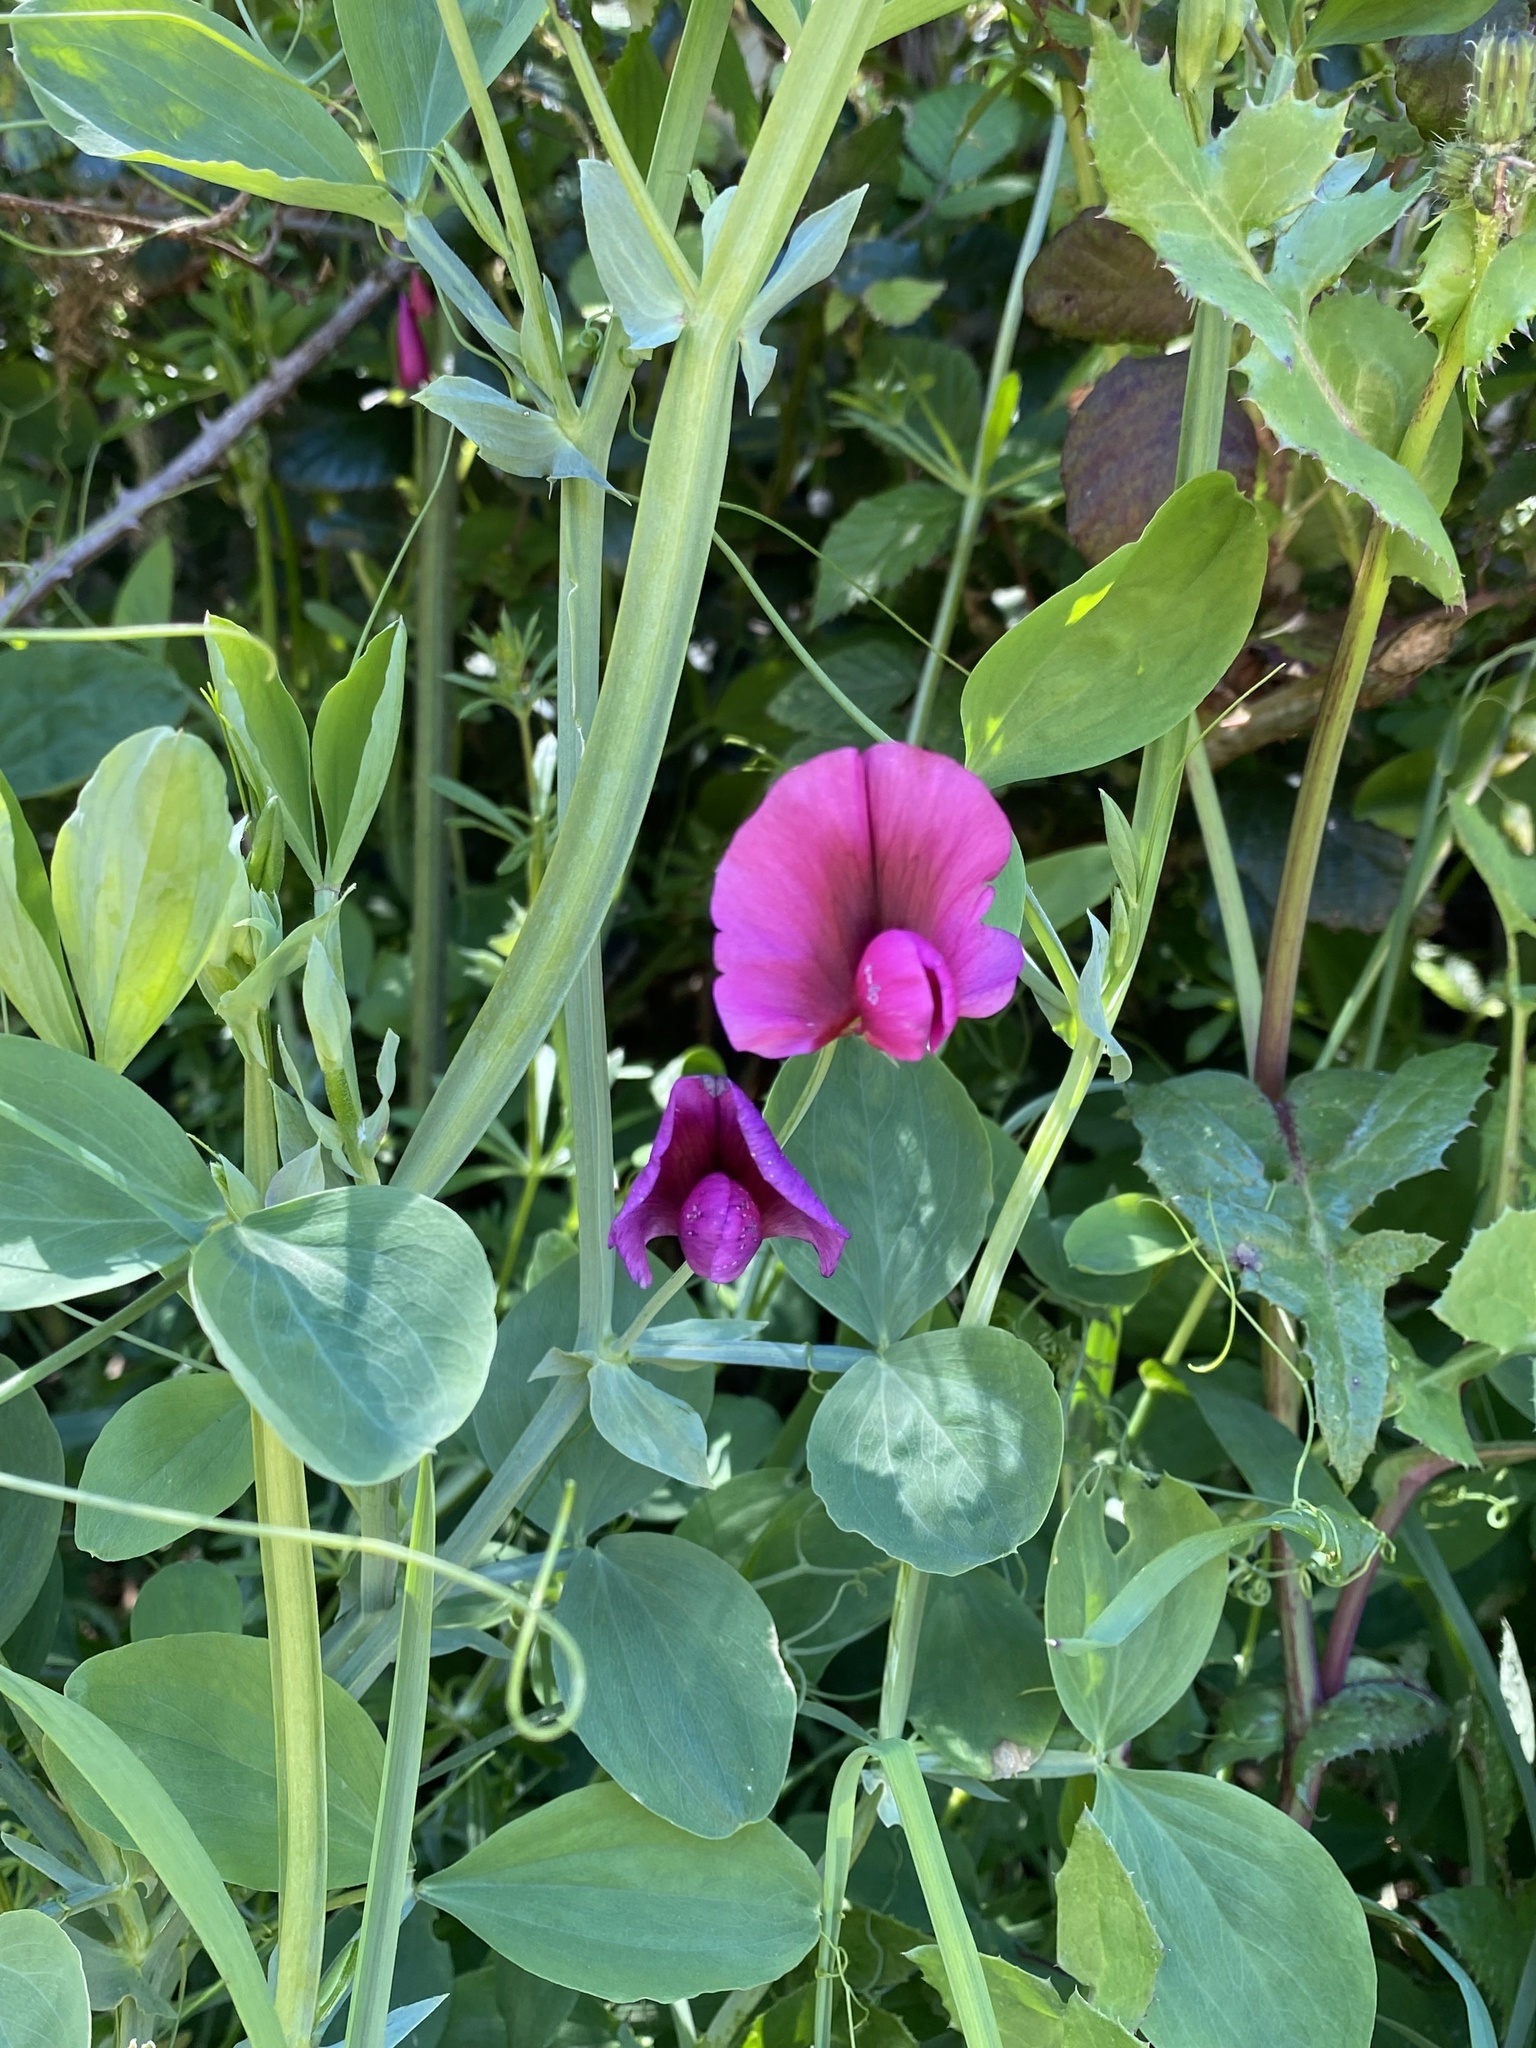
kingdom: Plantae
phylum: Tracheophyta
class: Magnoliopsida
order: Fabales
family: Fabaceae
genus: Lathyrus
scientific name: Lathyrus tingitanus
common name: Tangier pea
